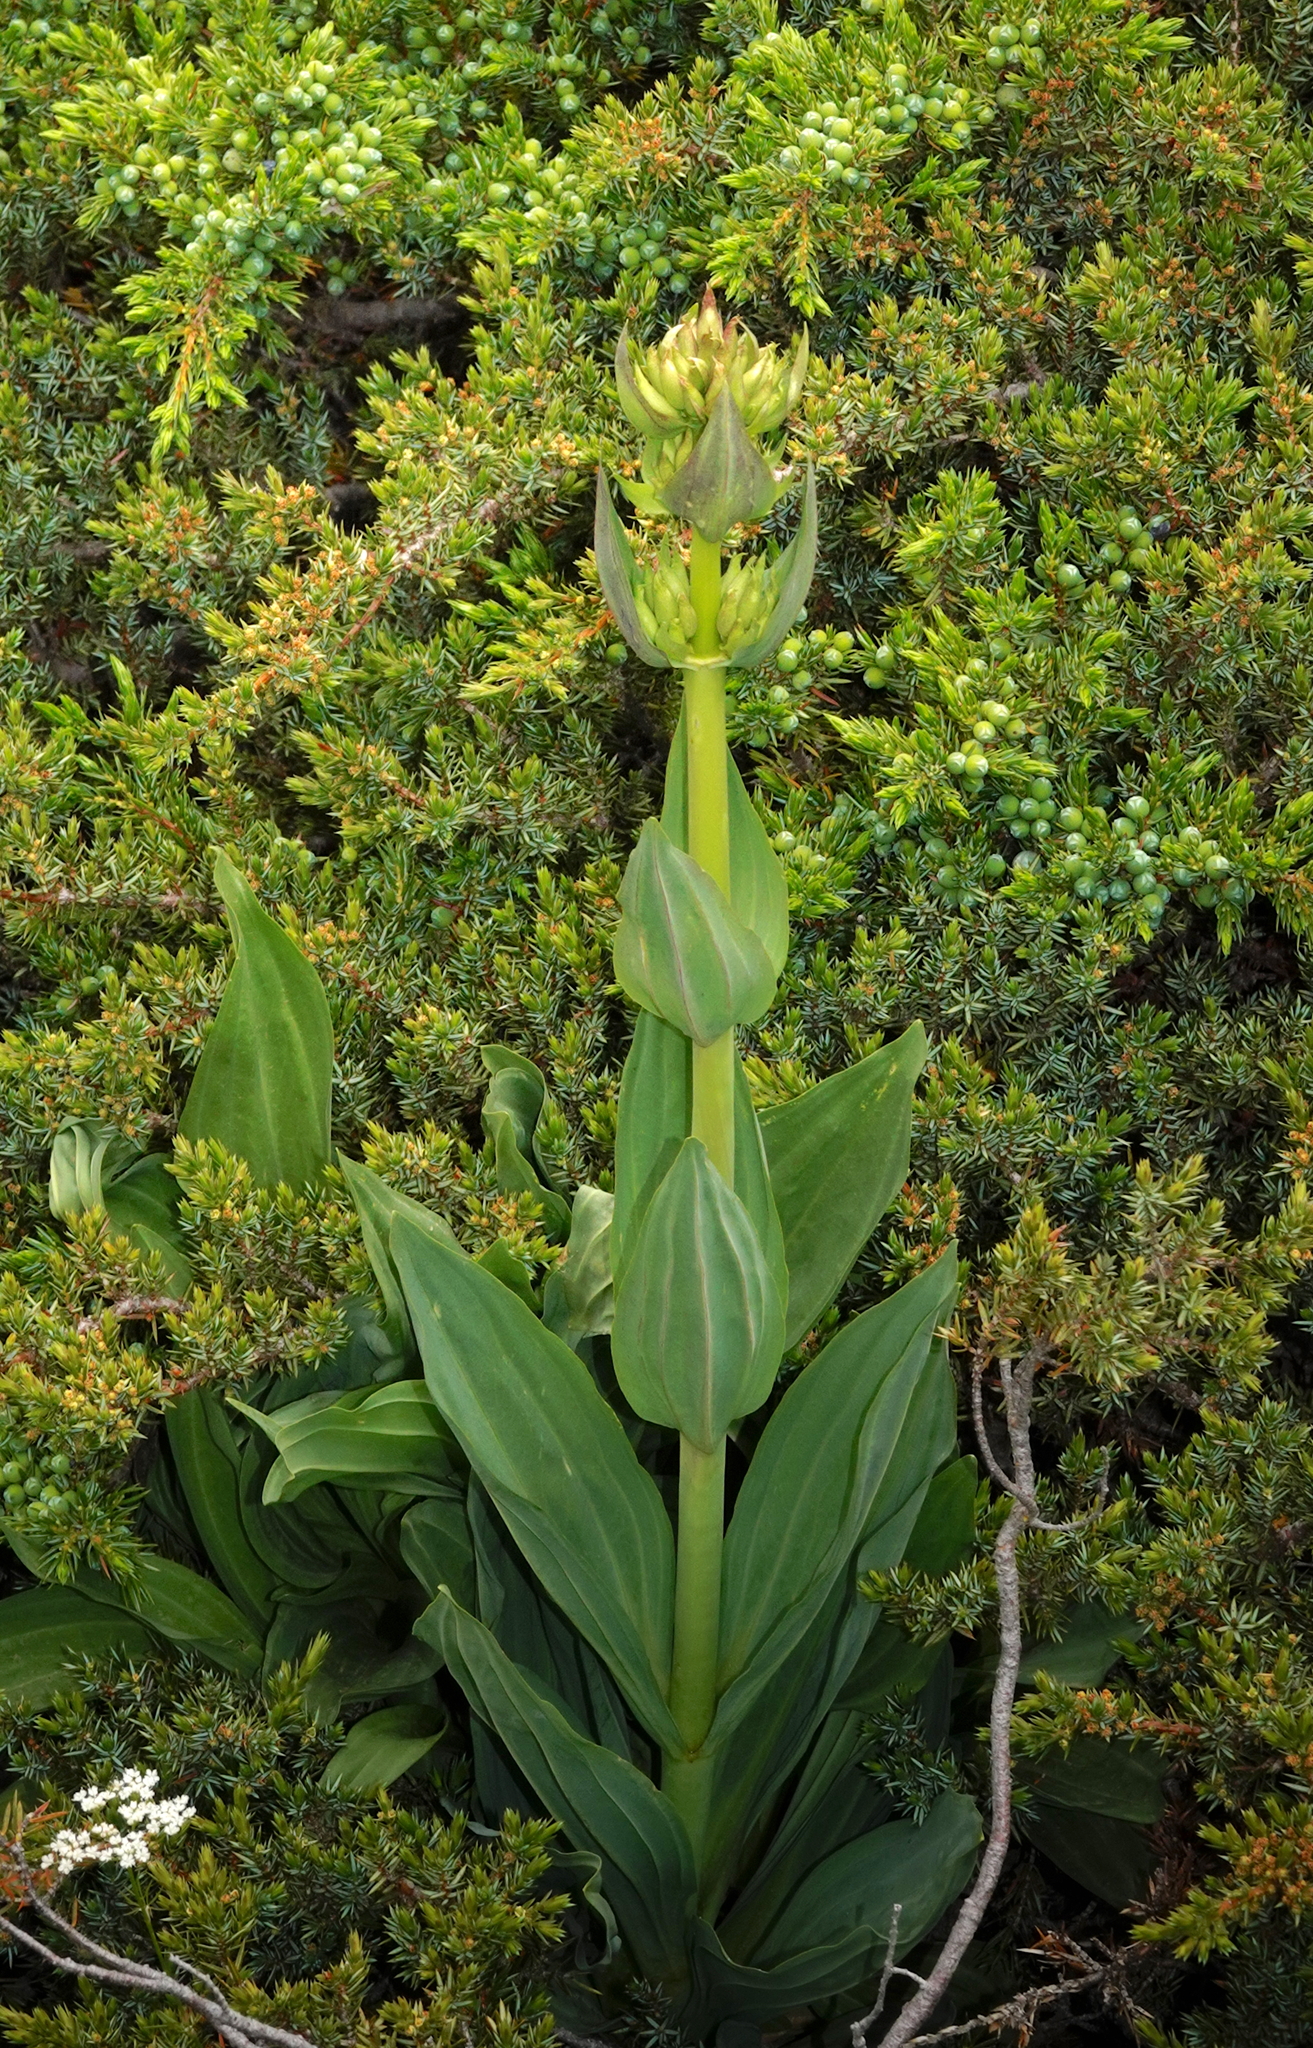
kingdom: Plantae
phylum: Tracheophyta
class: Magnoliopsida
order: Gentianales
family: Gentianaceae
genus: Gentiana
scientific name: Gentiana lutea
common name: Great yellow gentian
